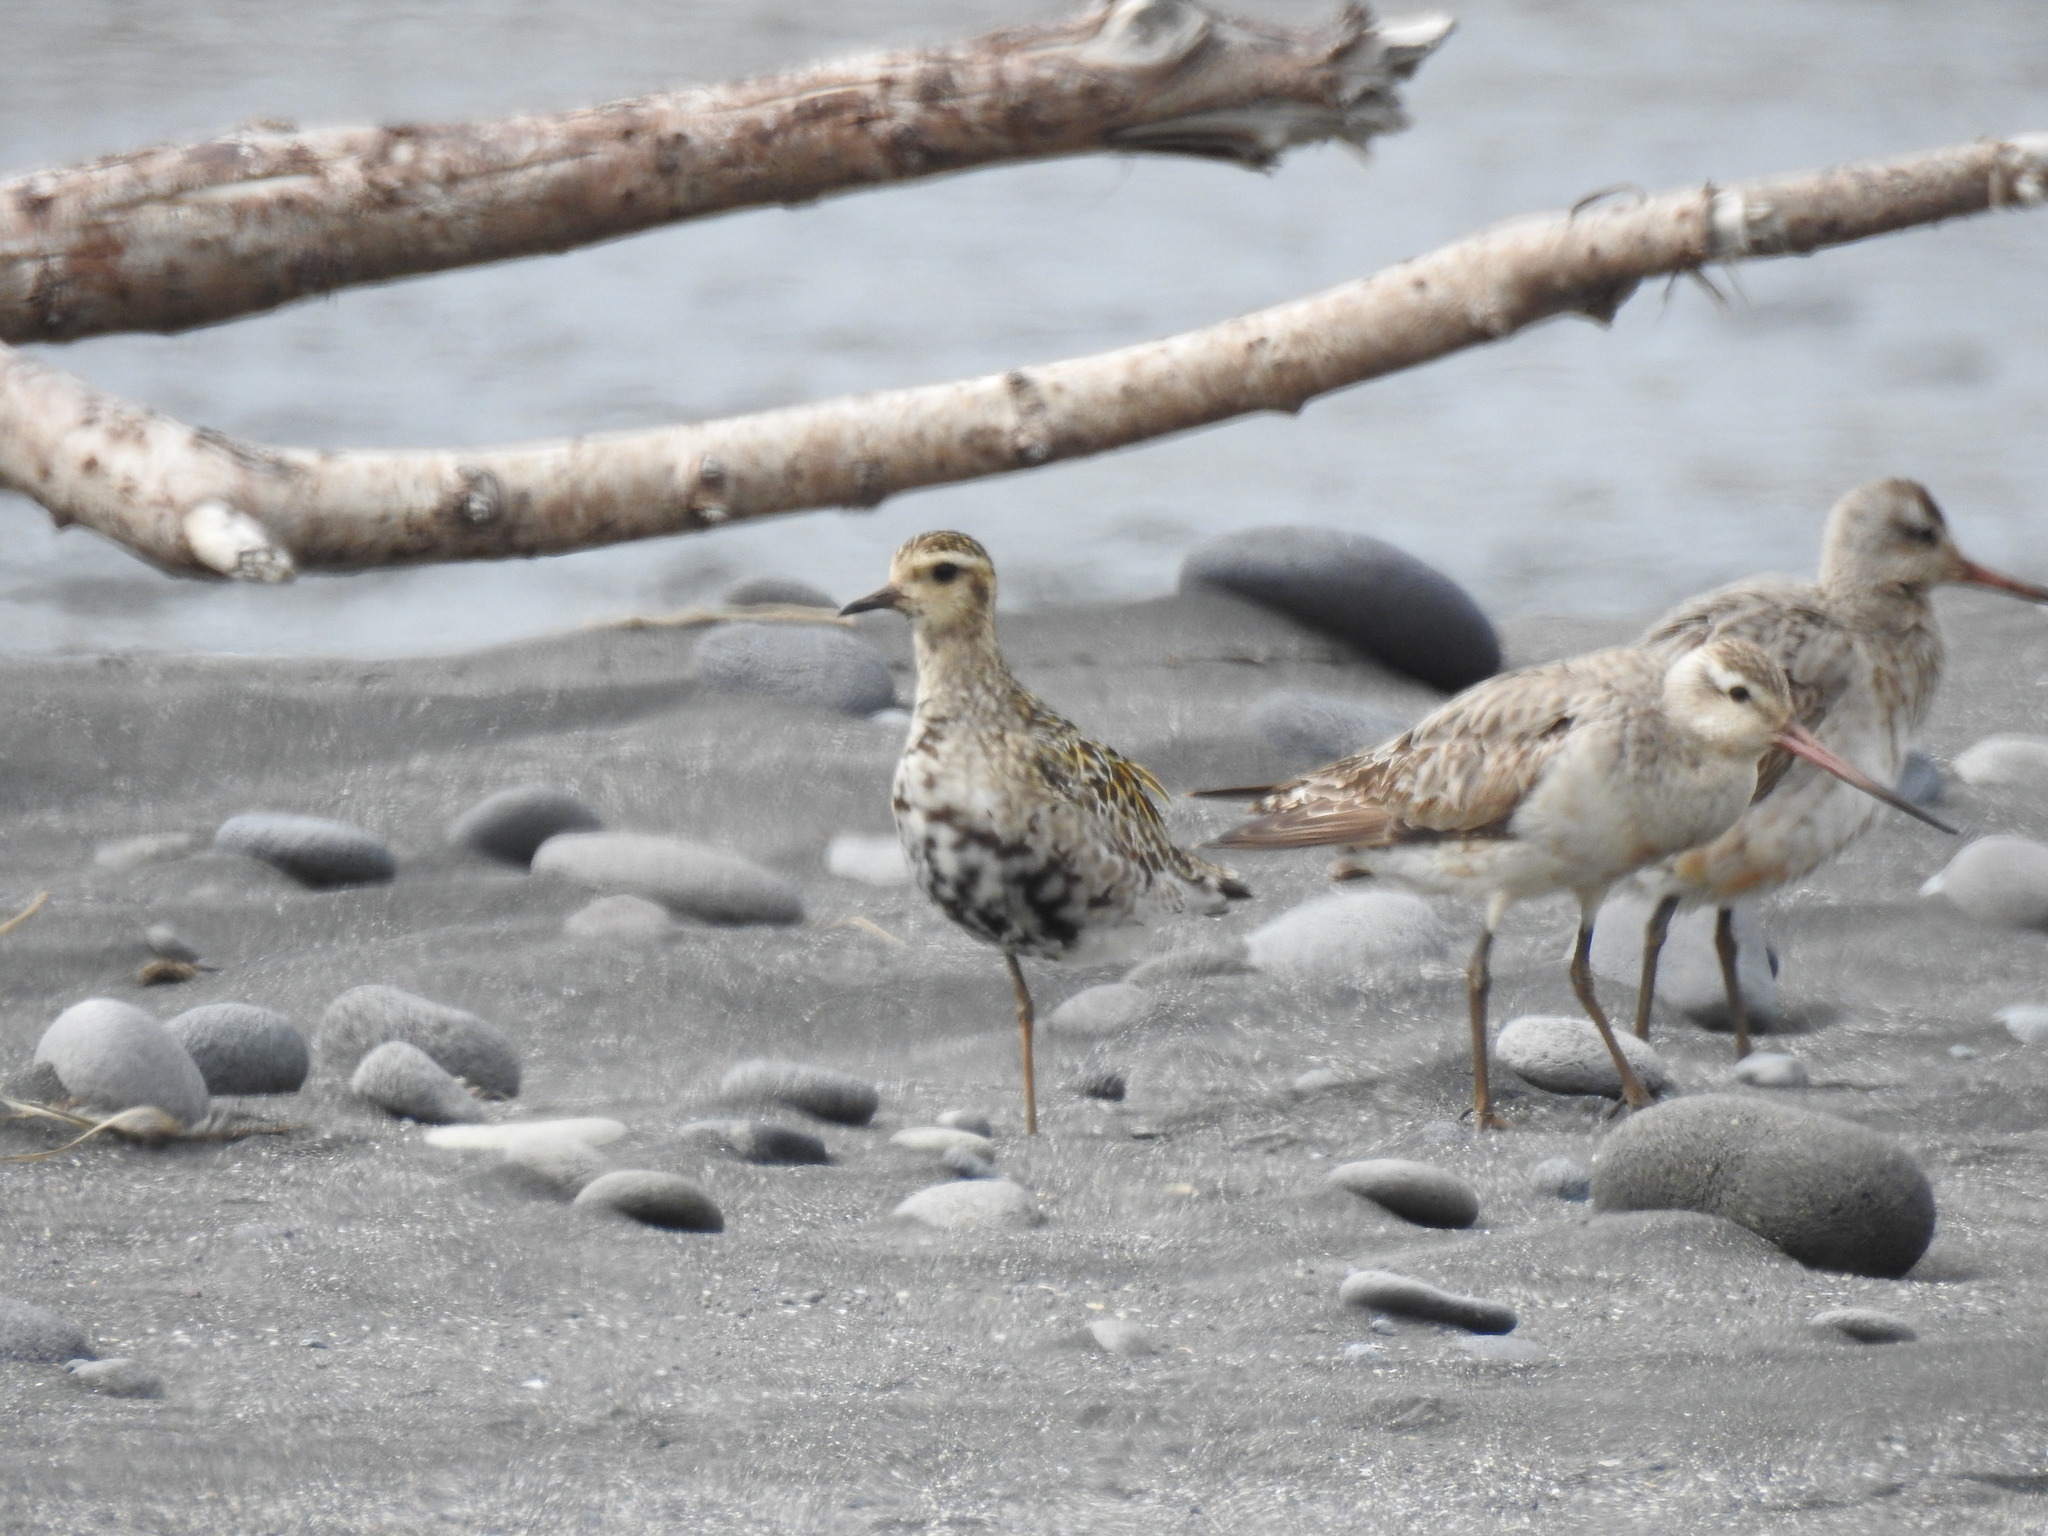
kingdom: Animalia
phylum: Chordata
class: Aves
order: Charadriiformes
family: Charadriidae
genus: Pluvialis
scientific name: Pluvialis fulva
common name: Pacific golden plover
